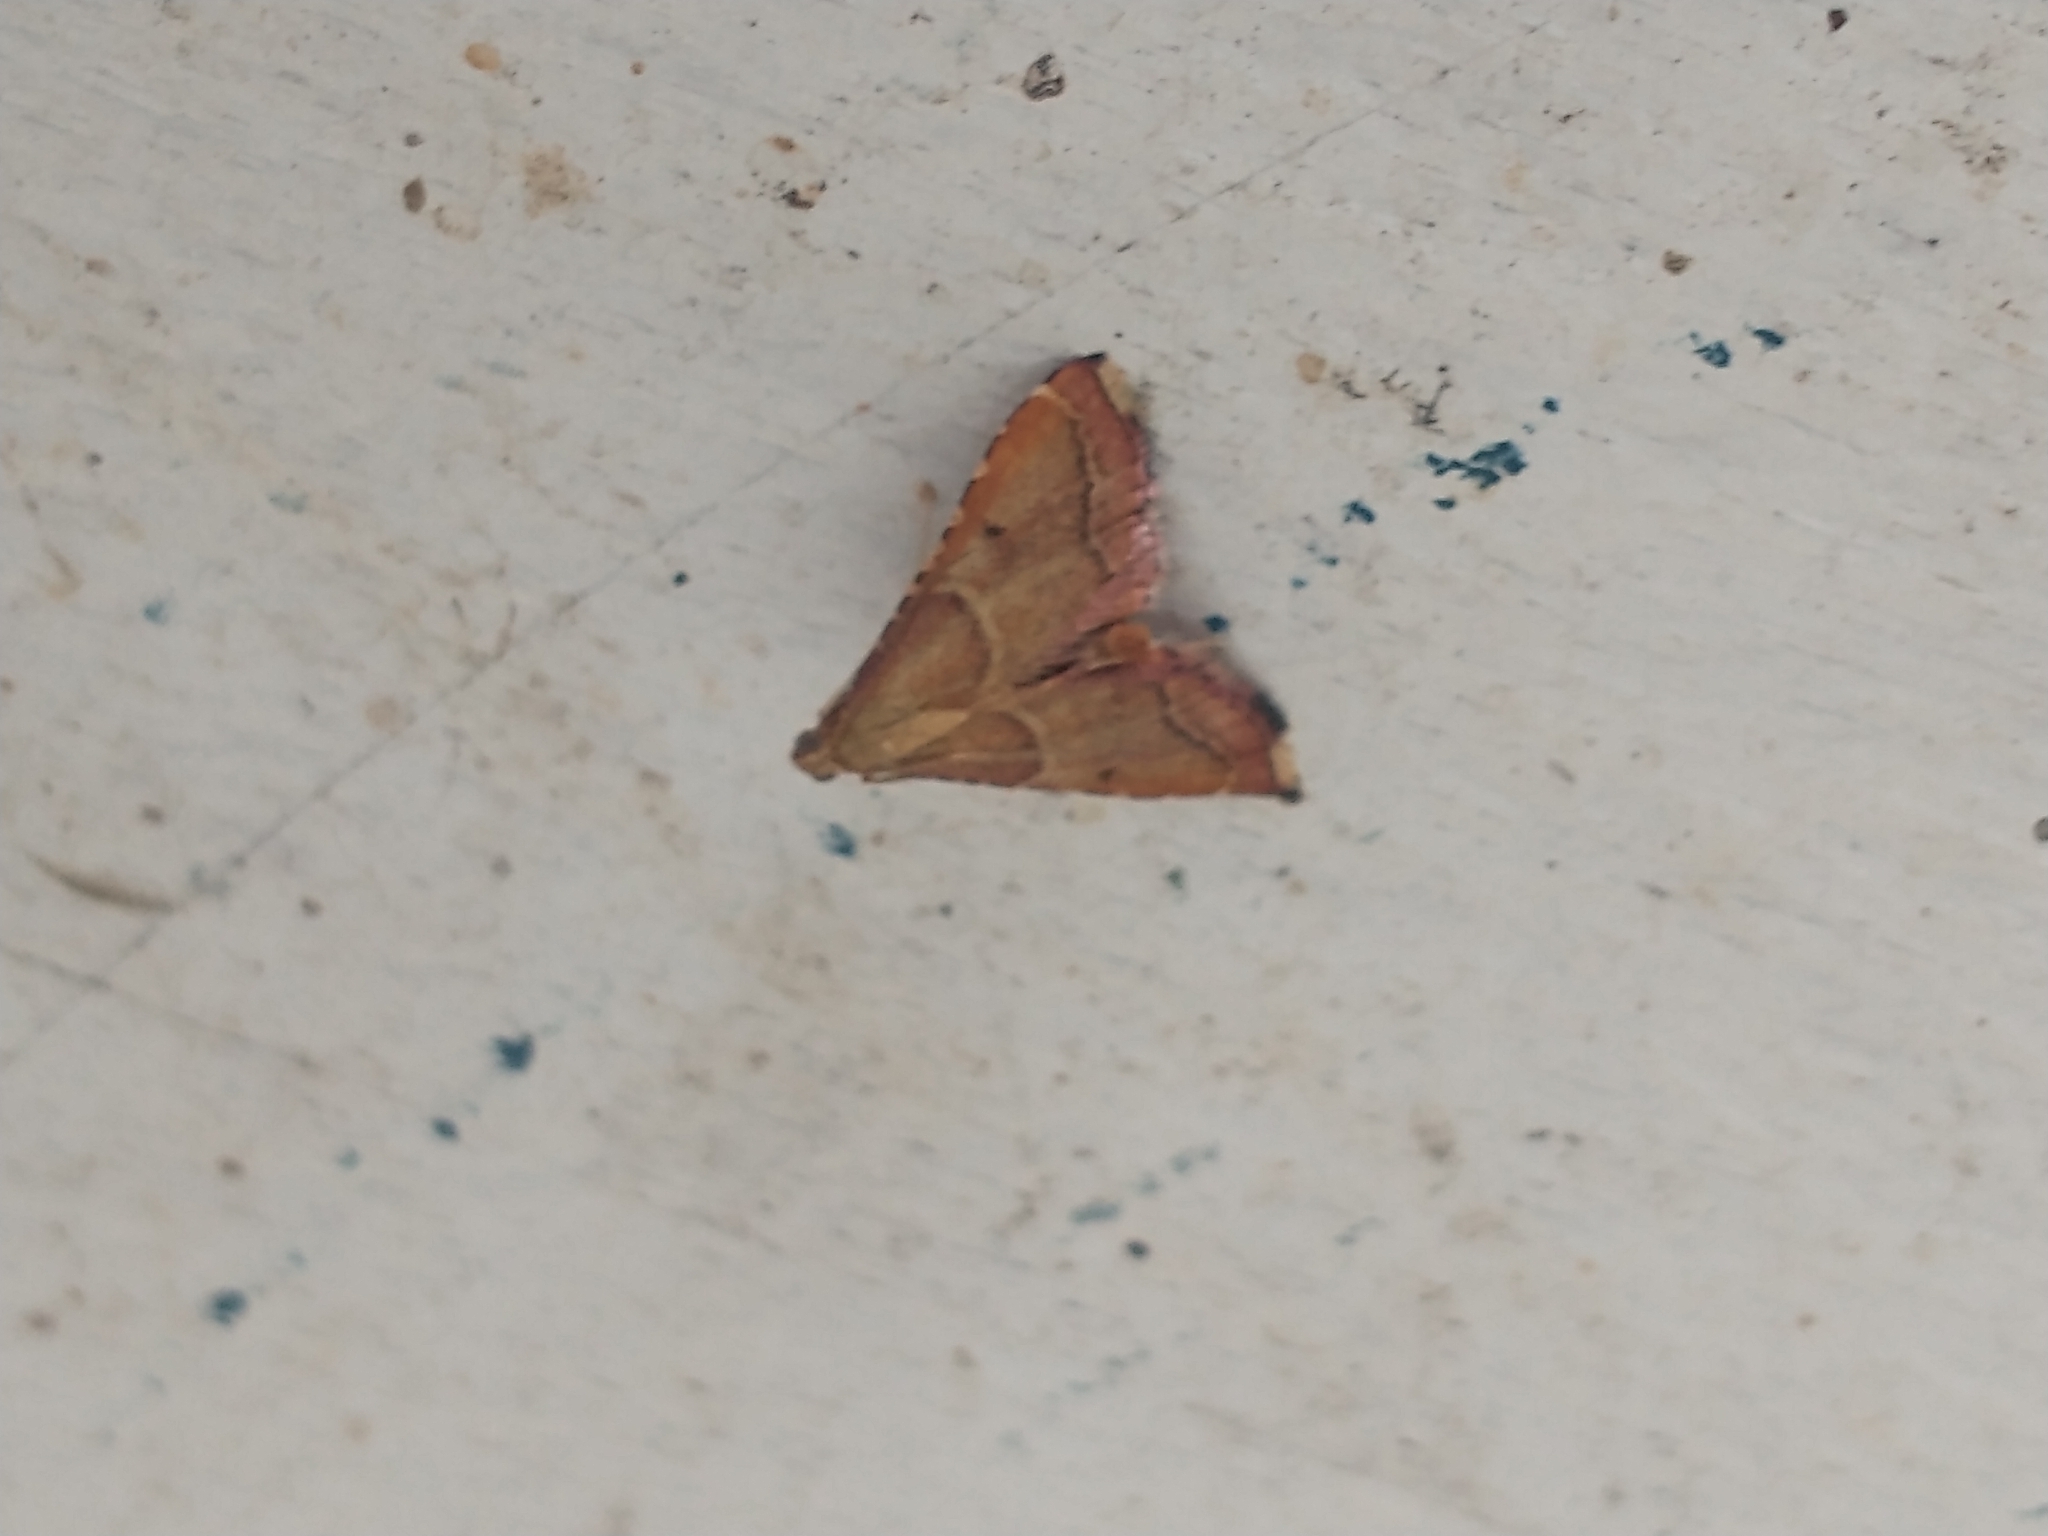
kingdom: Animalia
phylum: Arthropoda
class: Insecta
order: Lepidoptera
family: Pyralidae
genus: Endotricha
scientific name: Endotricha flammealis
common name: Rosy tabby
